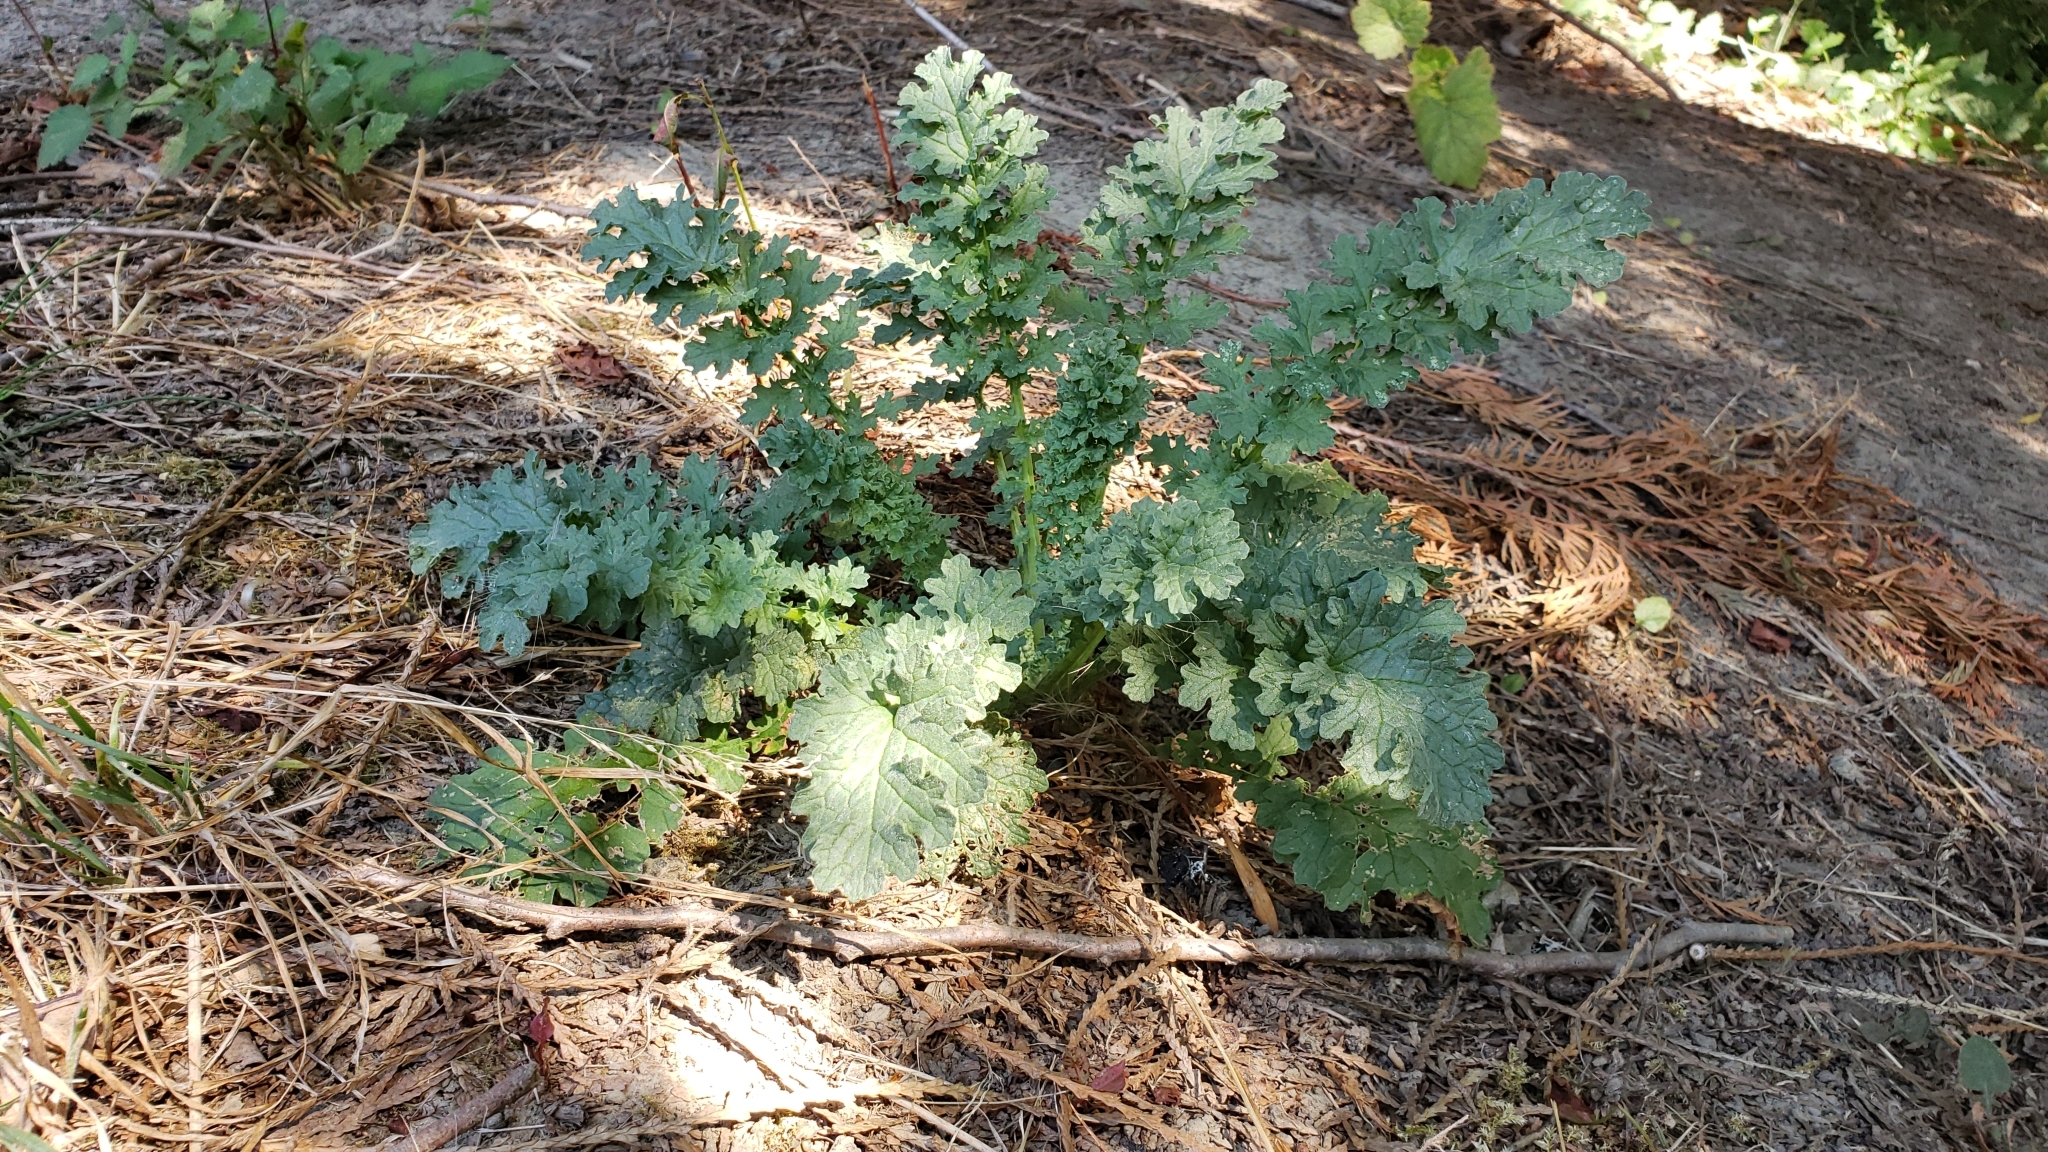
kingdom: Plantae
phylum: Tracheophyta
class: Magnoliopsida
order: Asterales
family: Asteraceae
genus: Jacobaea
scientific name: Jacobaea vulgaris
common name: Stinking willie
